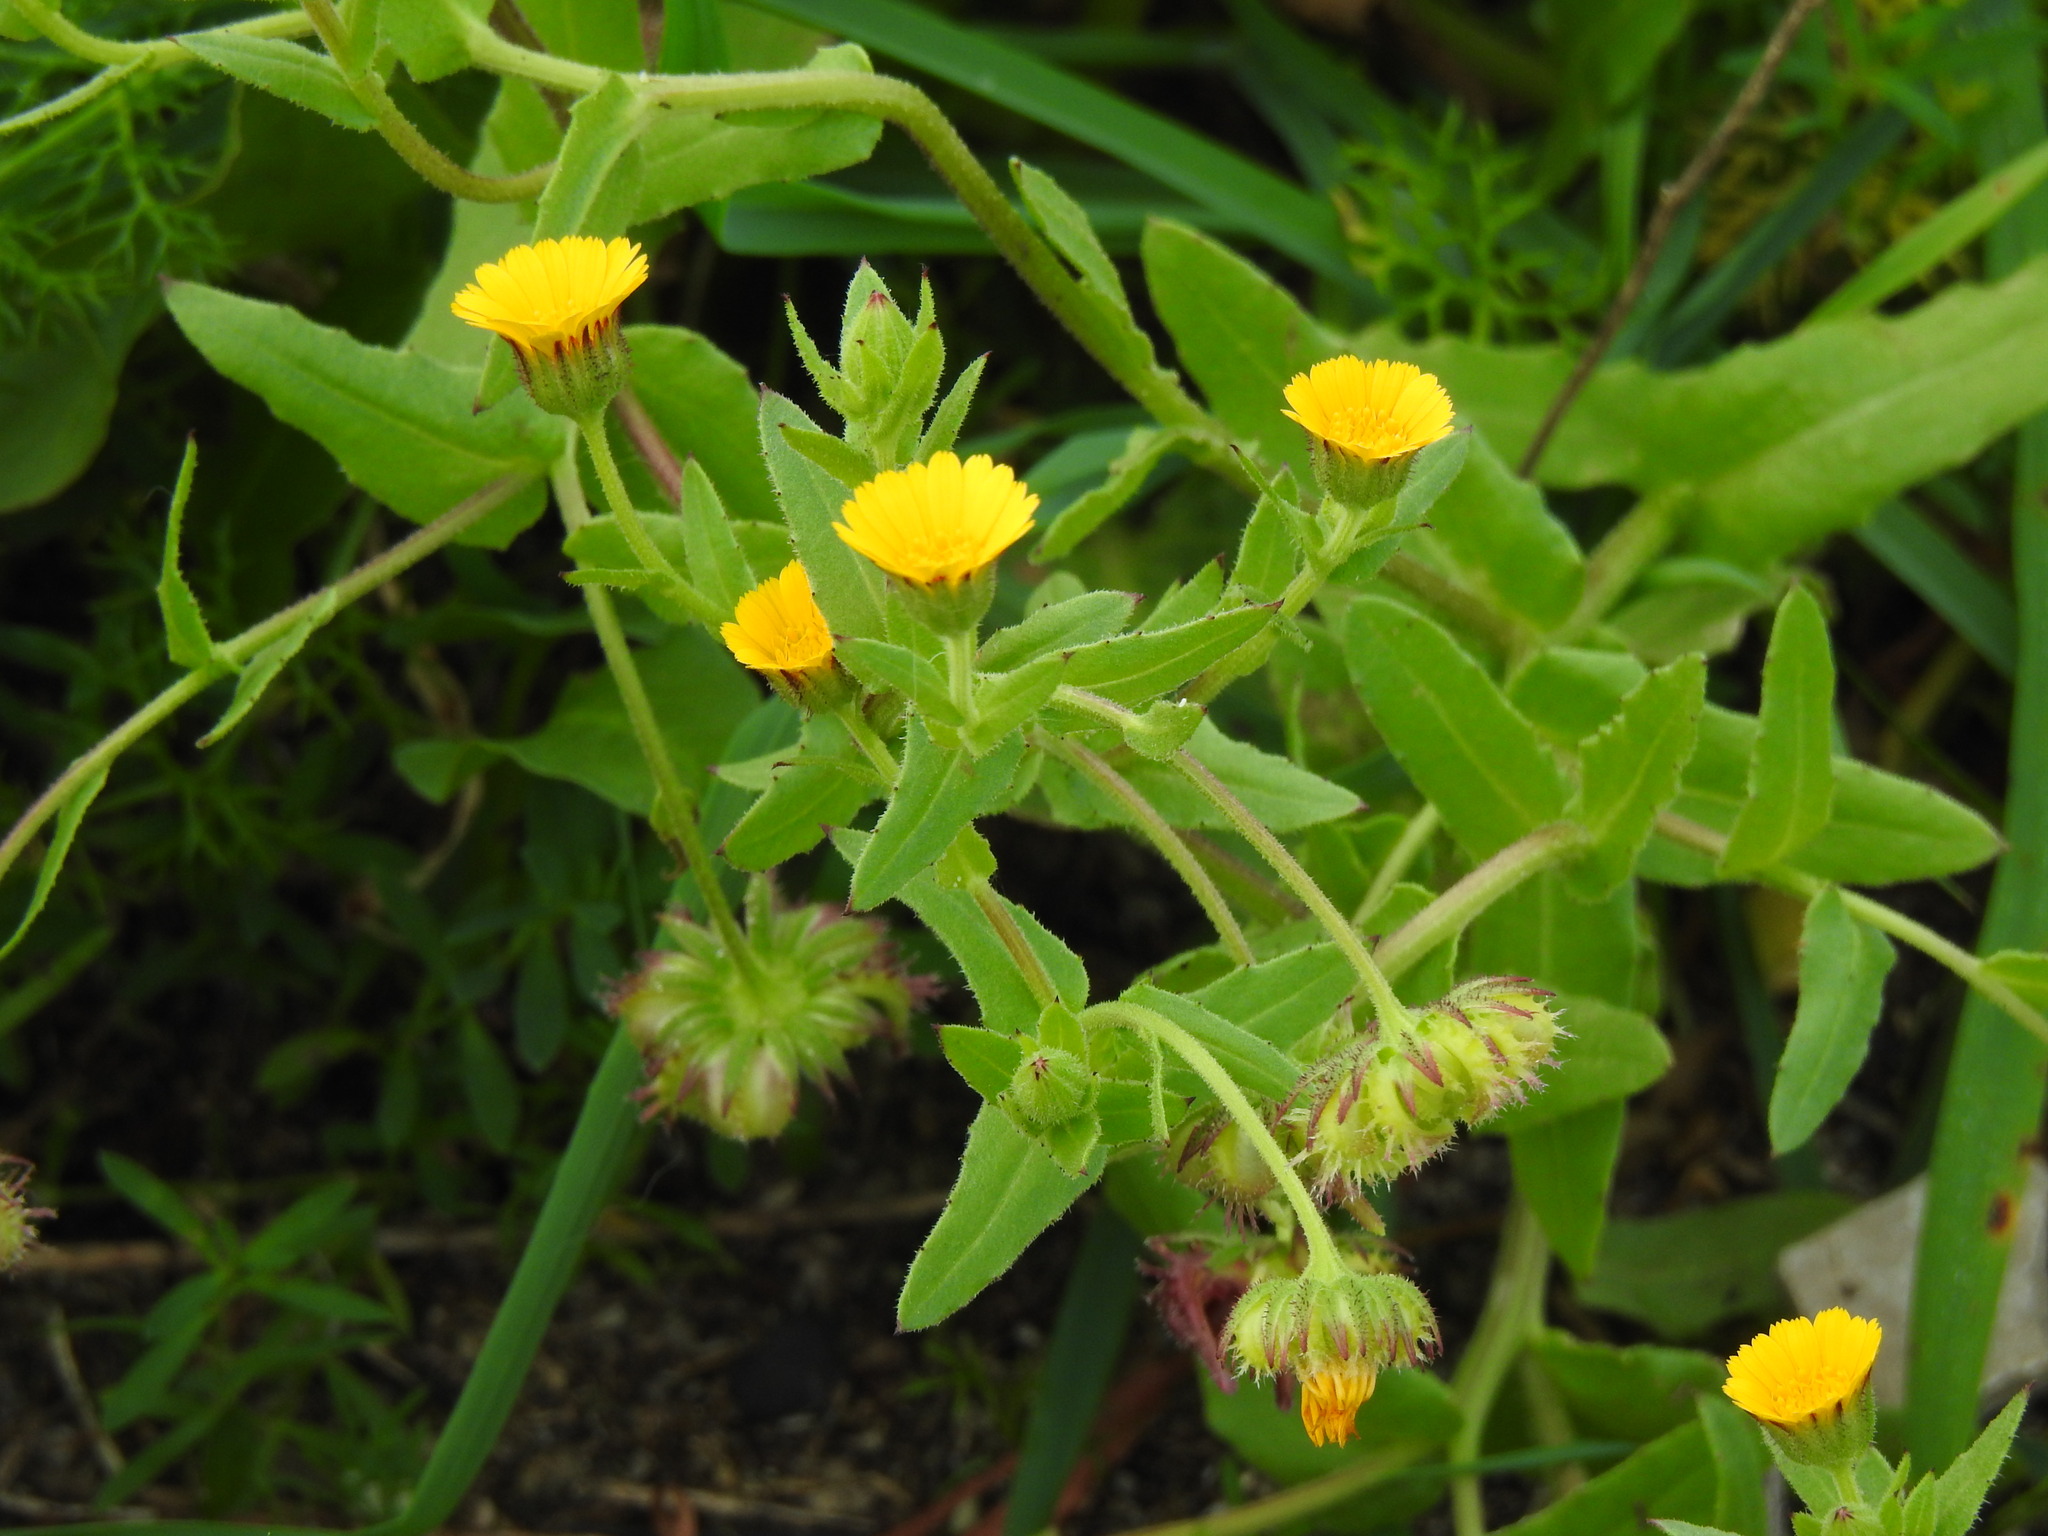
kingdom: Plantae
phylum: Tracheophyta
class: Magnoliopsida
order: Asterales
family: Asteraceae
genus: Calendula
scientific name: Calendula arvensis
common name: Field marigold
